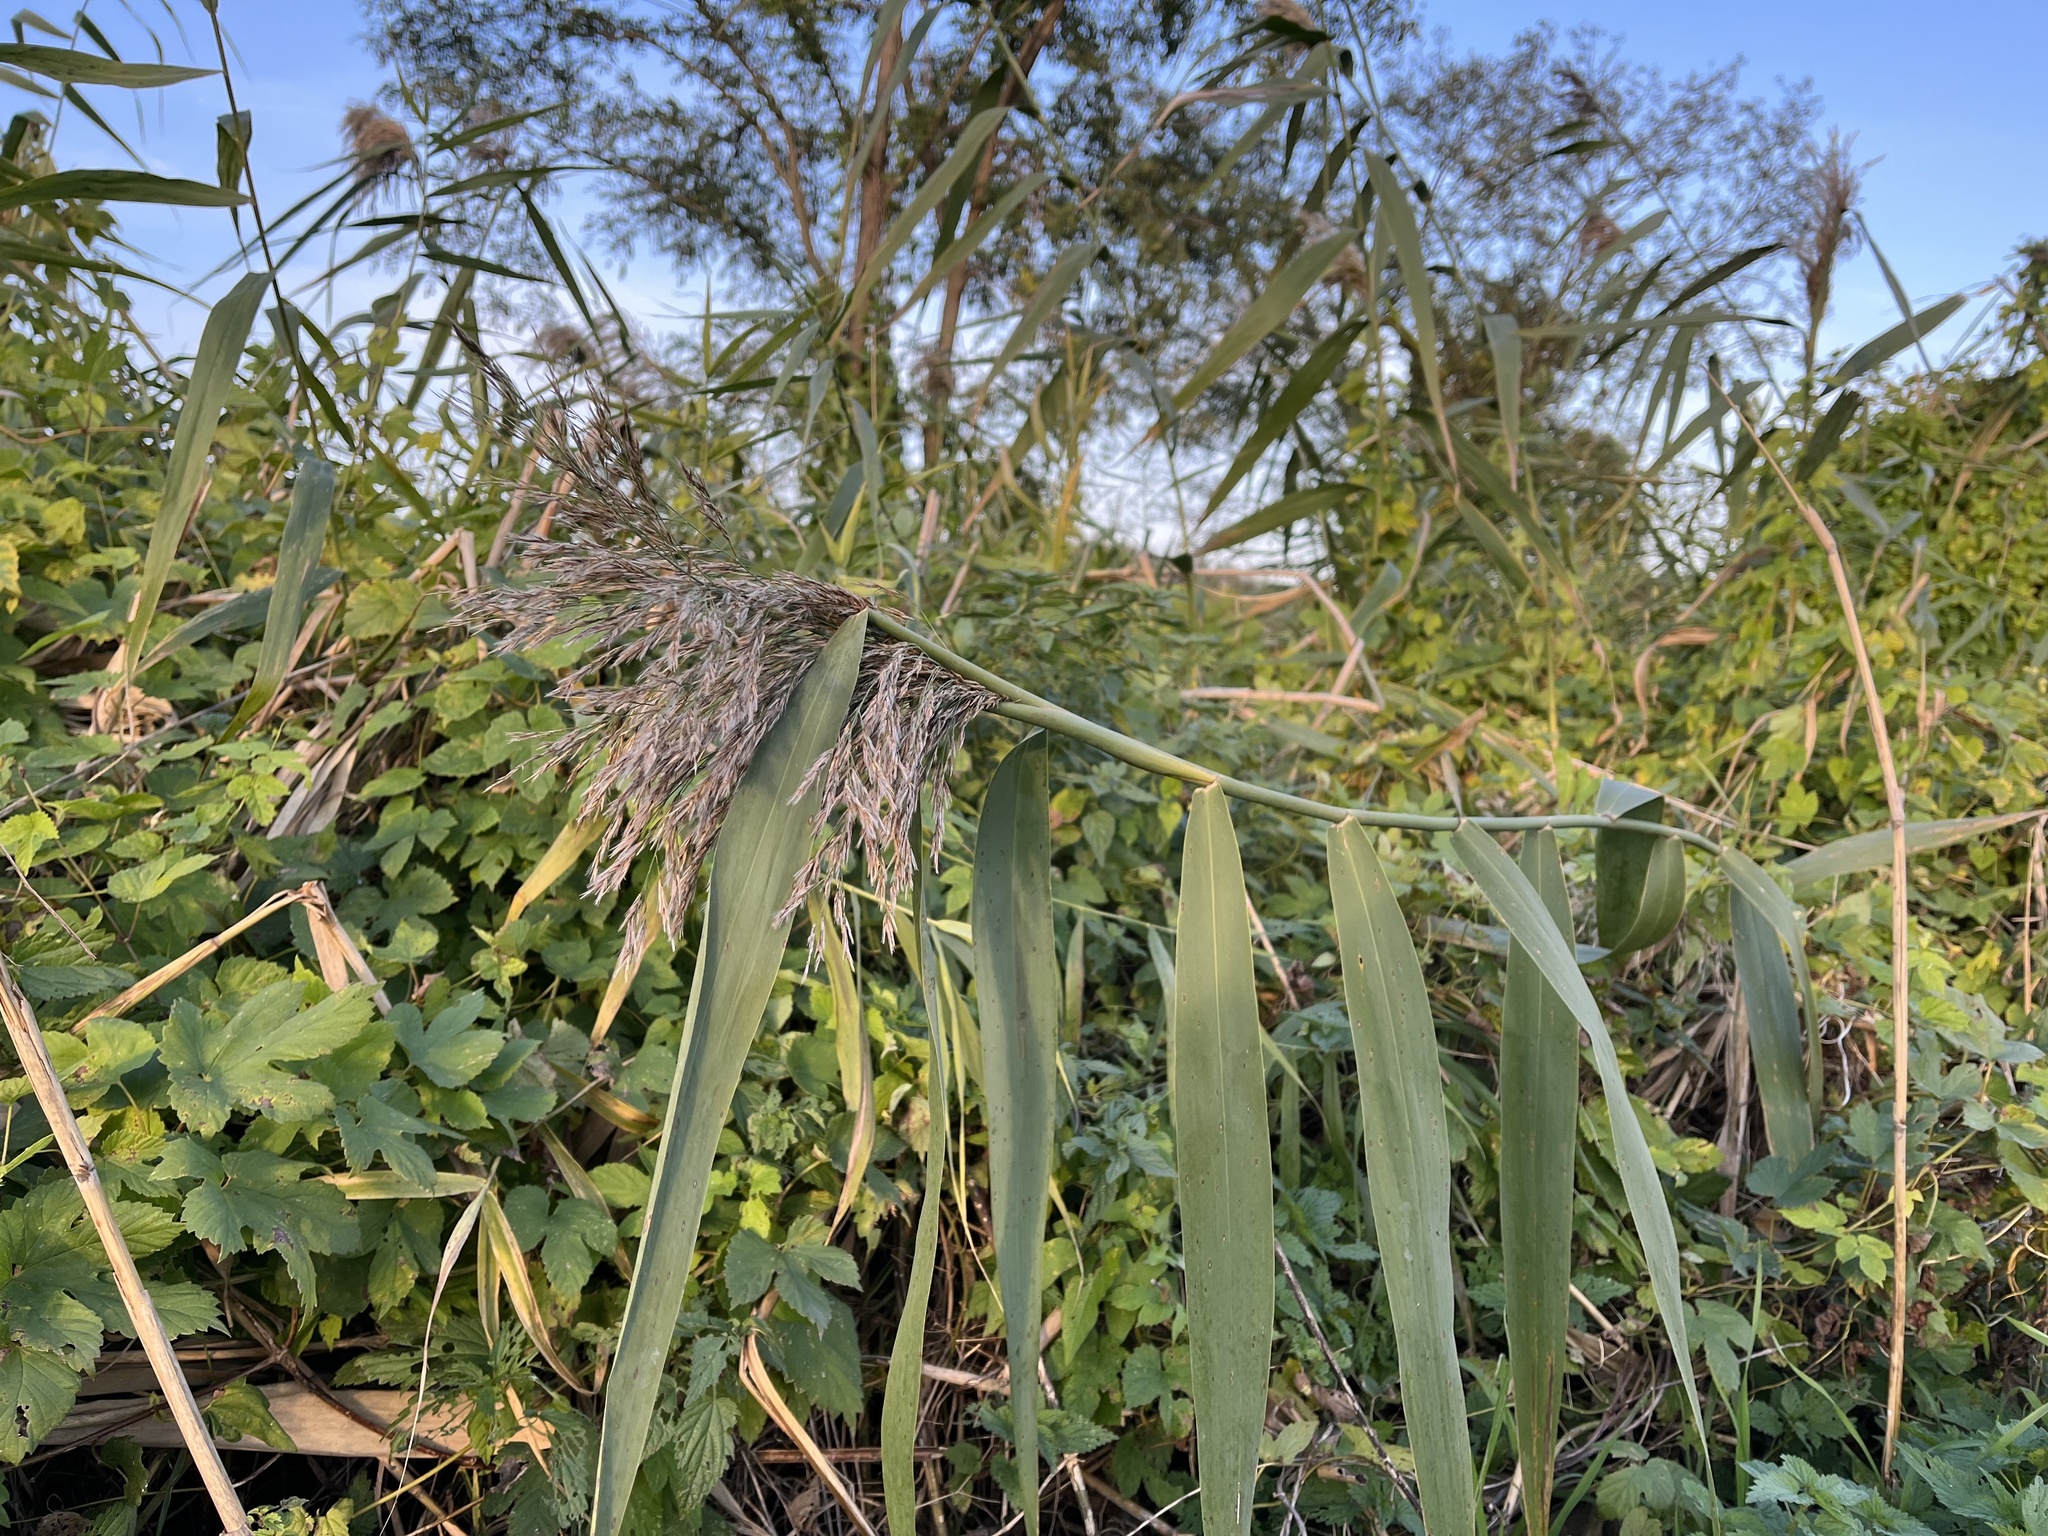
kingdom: Plantae
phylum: Tracheophyta
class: Liliopsida
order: Poales
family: Poaceae
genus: Phragmites
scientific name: Phragmites australis
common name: Common reed
